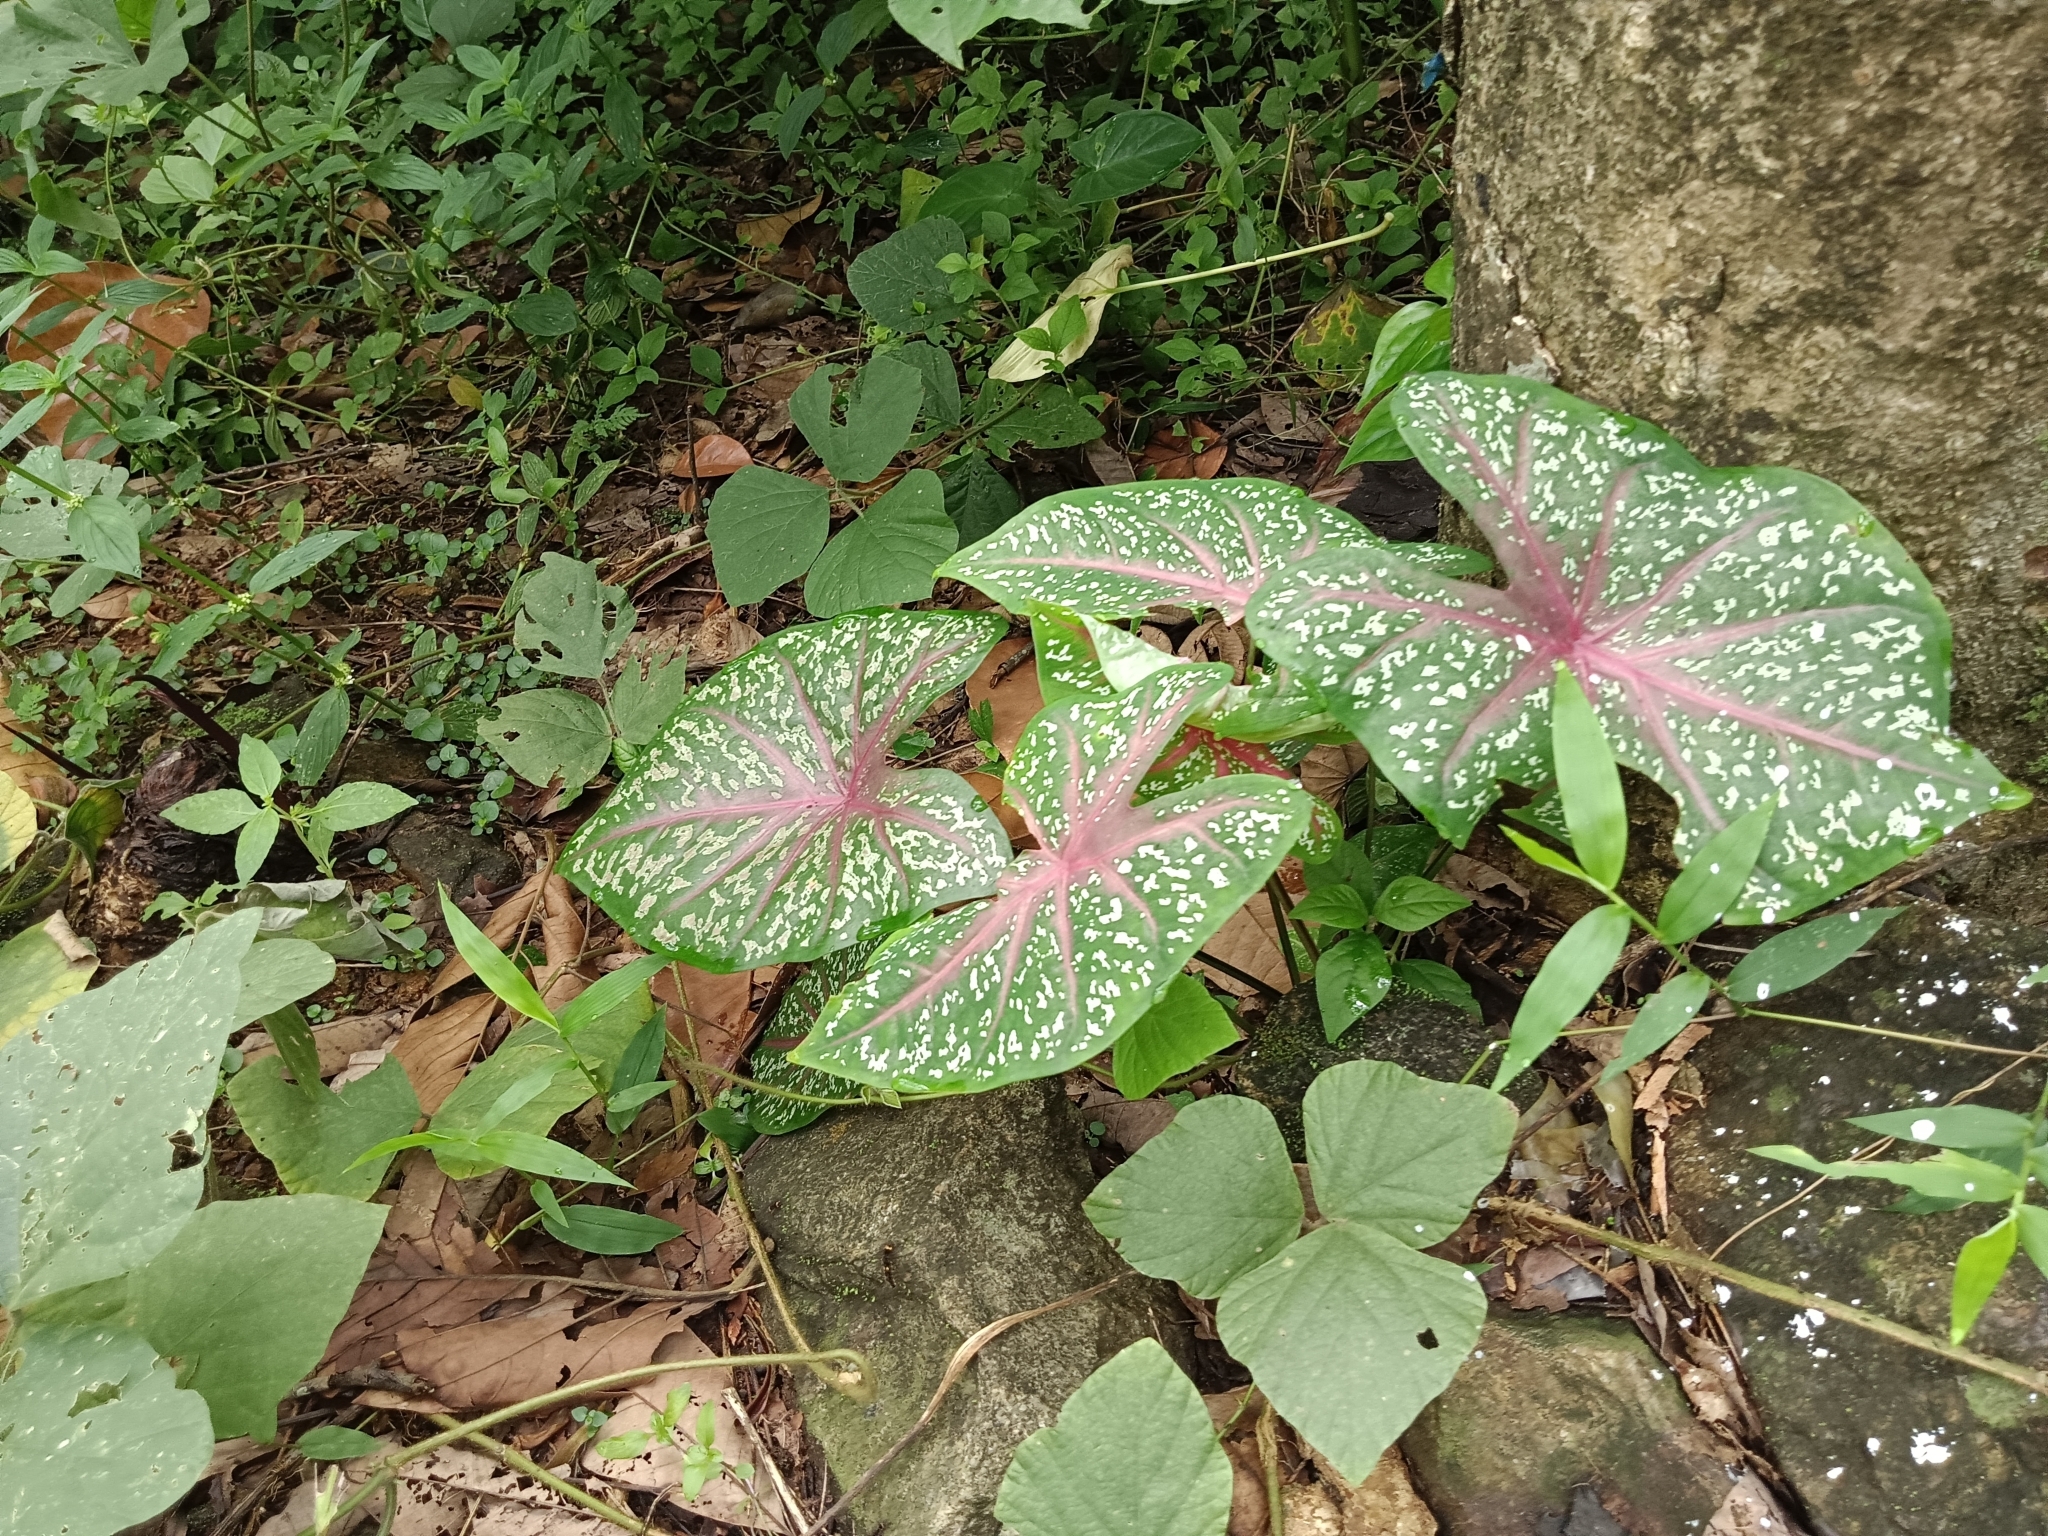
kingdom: Plantae
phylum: Tracheophyta
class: Liliopsida
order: Alismatales
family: Araceae
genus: Caladium
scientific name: Caladium bicolor
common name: Artist's pallet
